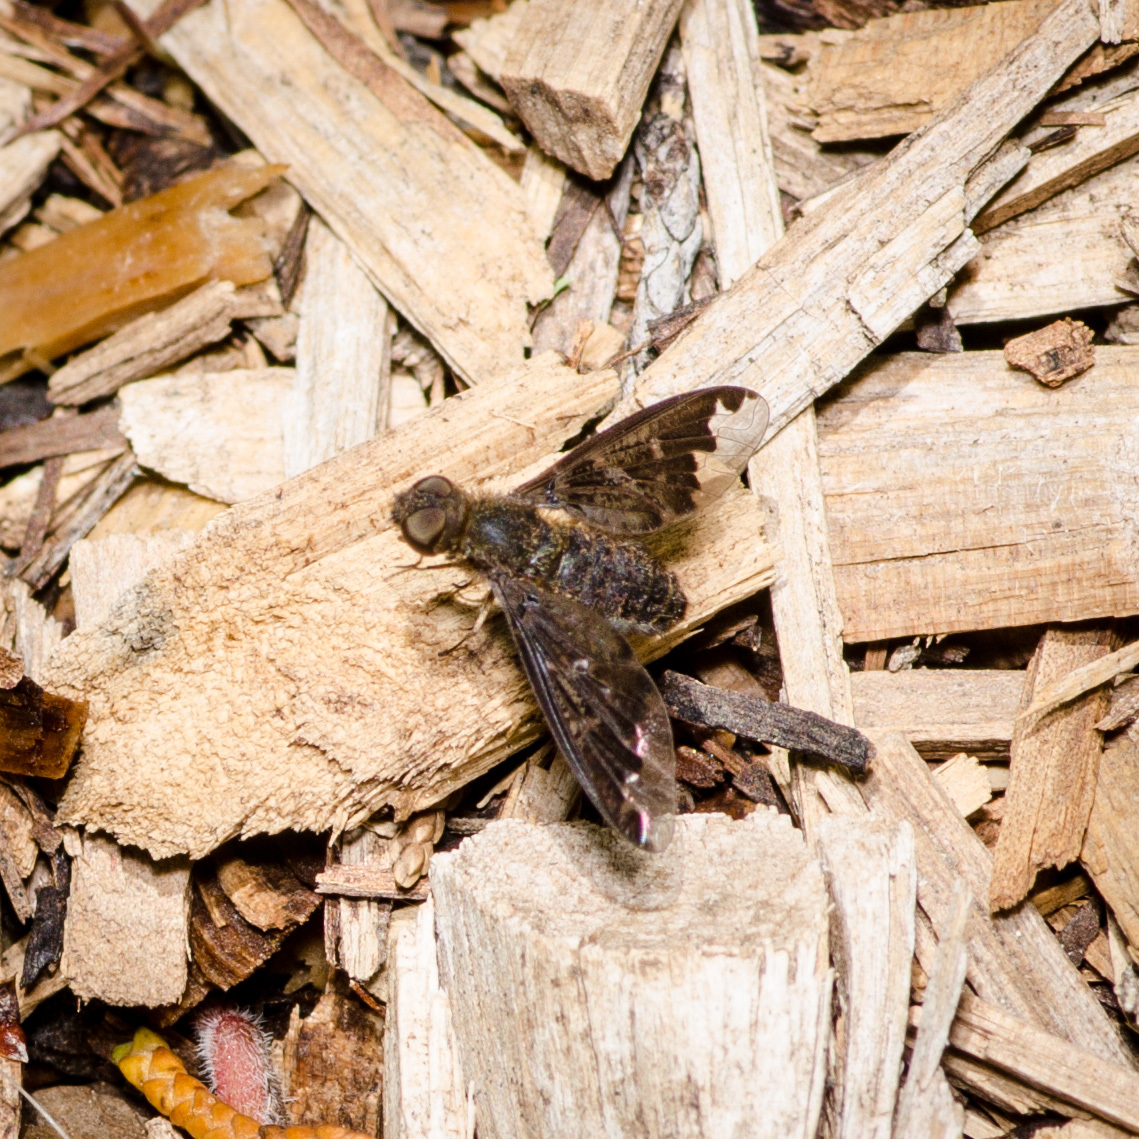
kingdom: Animalia
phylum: Arthropoda
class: Insecta
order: Diptera
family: Bombyliidae
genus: Hemipenthes
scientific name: Hemipenthes sinuosus
